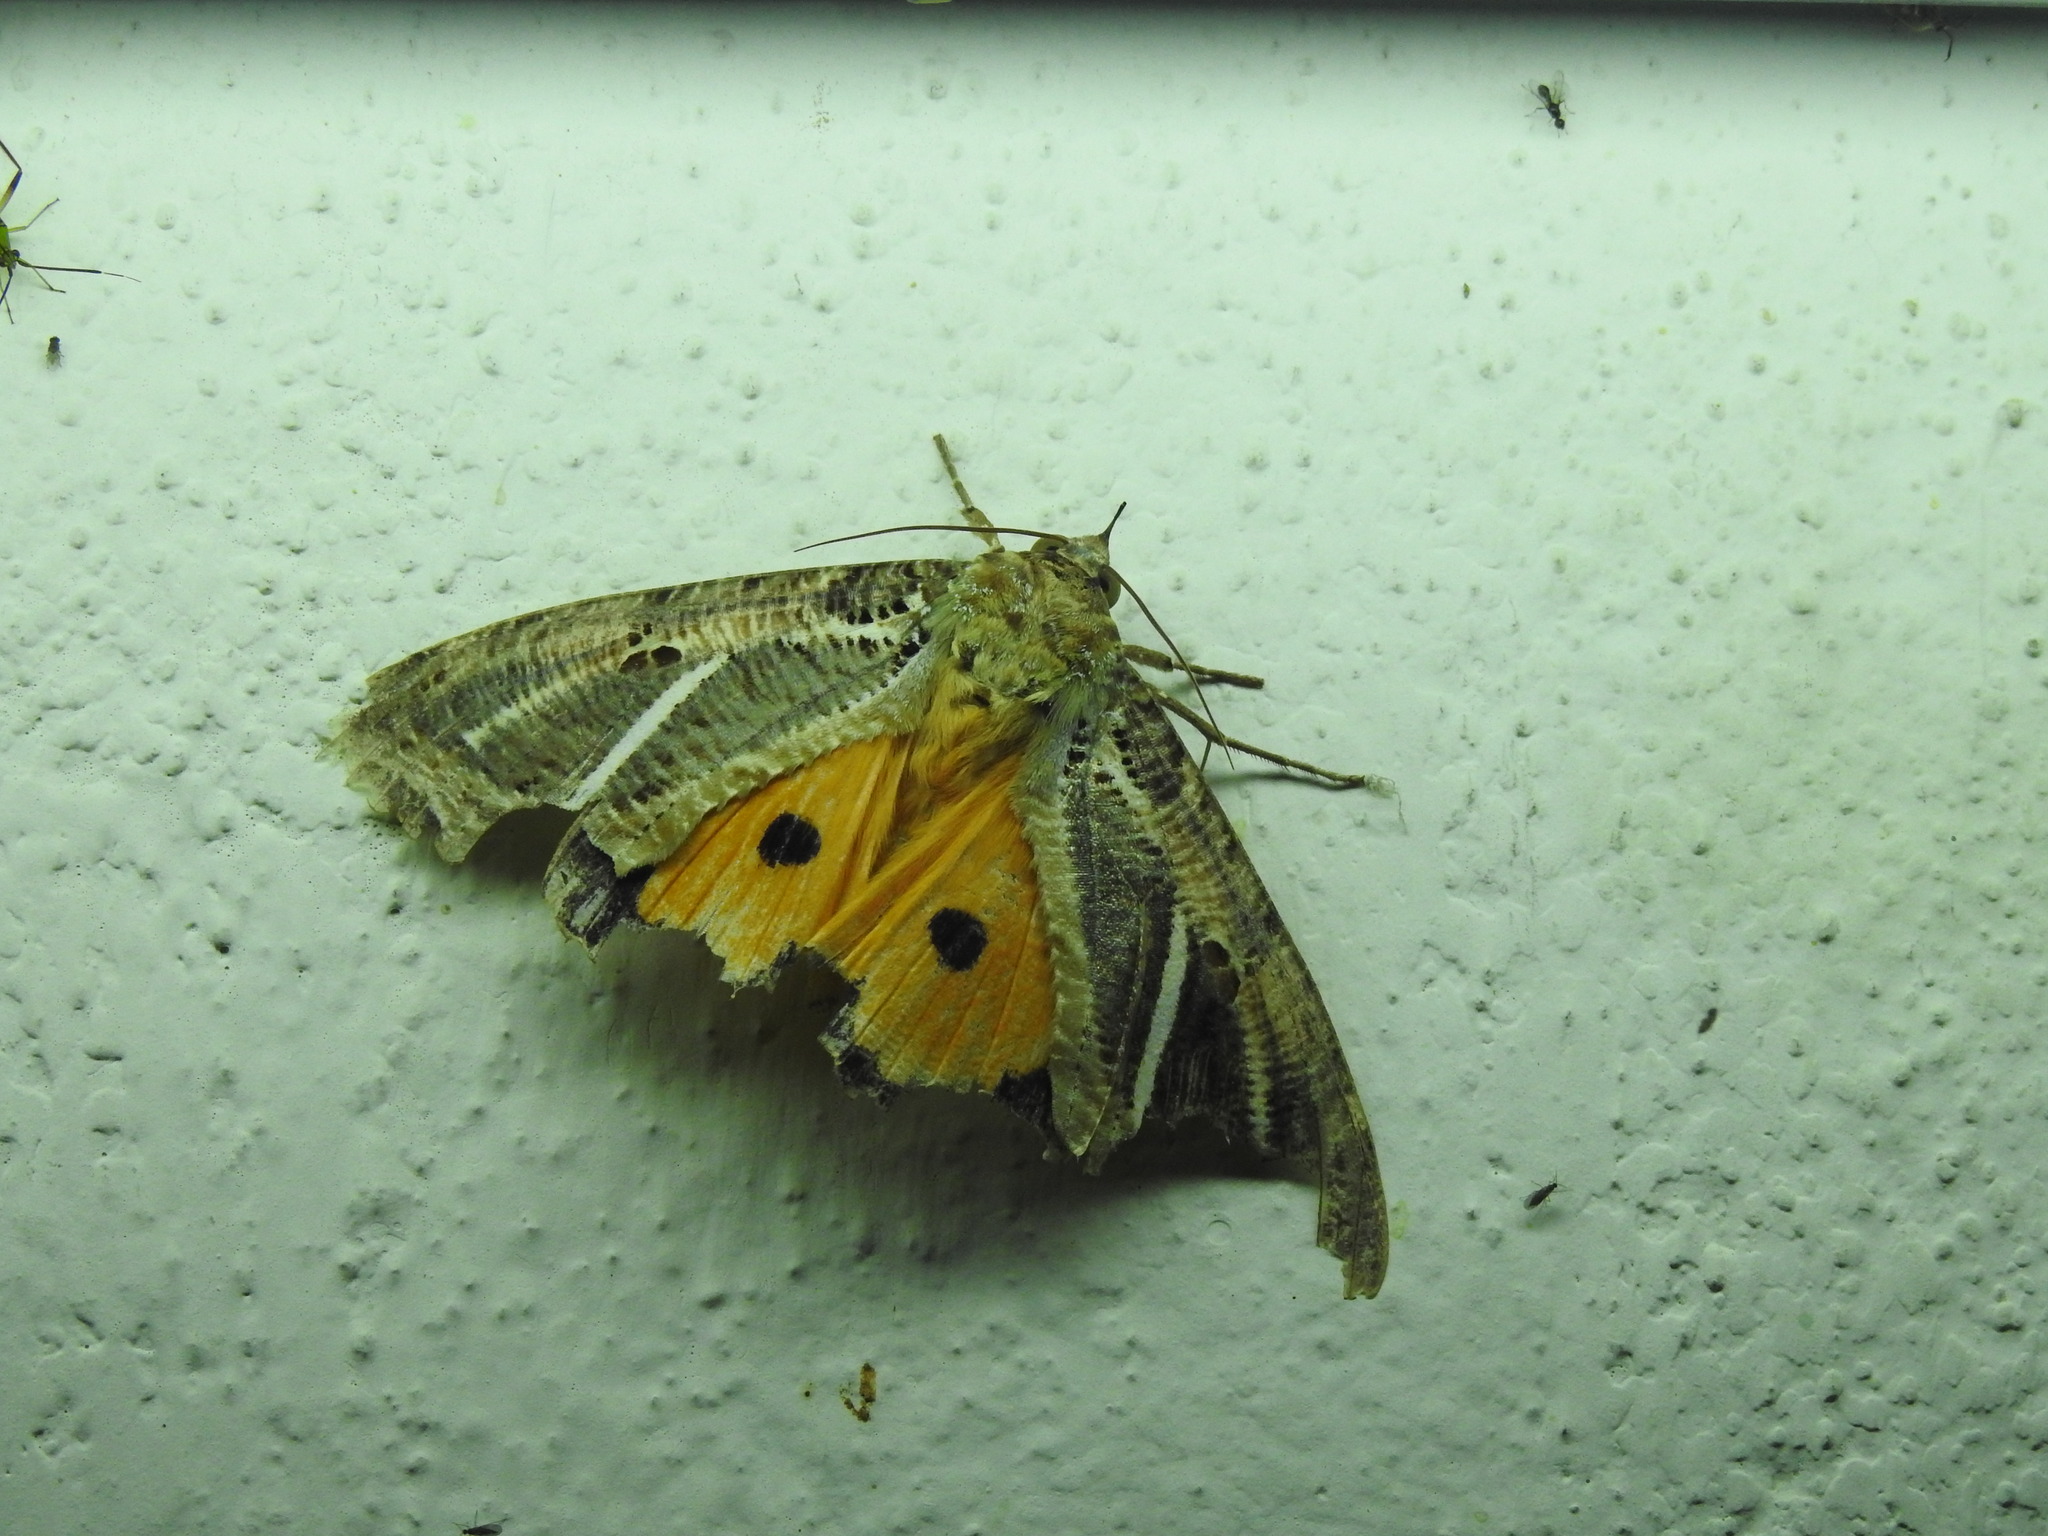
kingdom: Animalia
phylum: Arthropoda
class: Insecta
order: Lepidoptera
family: Erebidae
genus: Eudocima
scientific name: Eudocima materna
